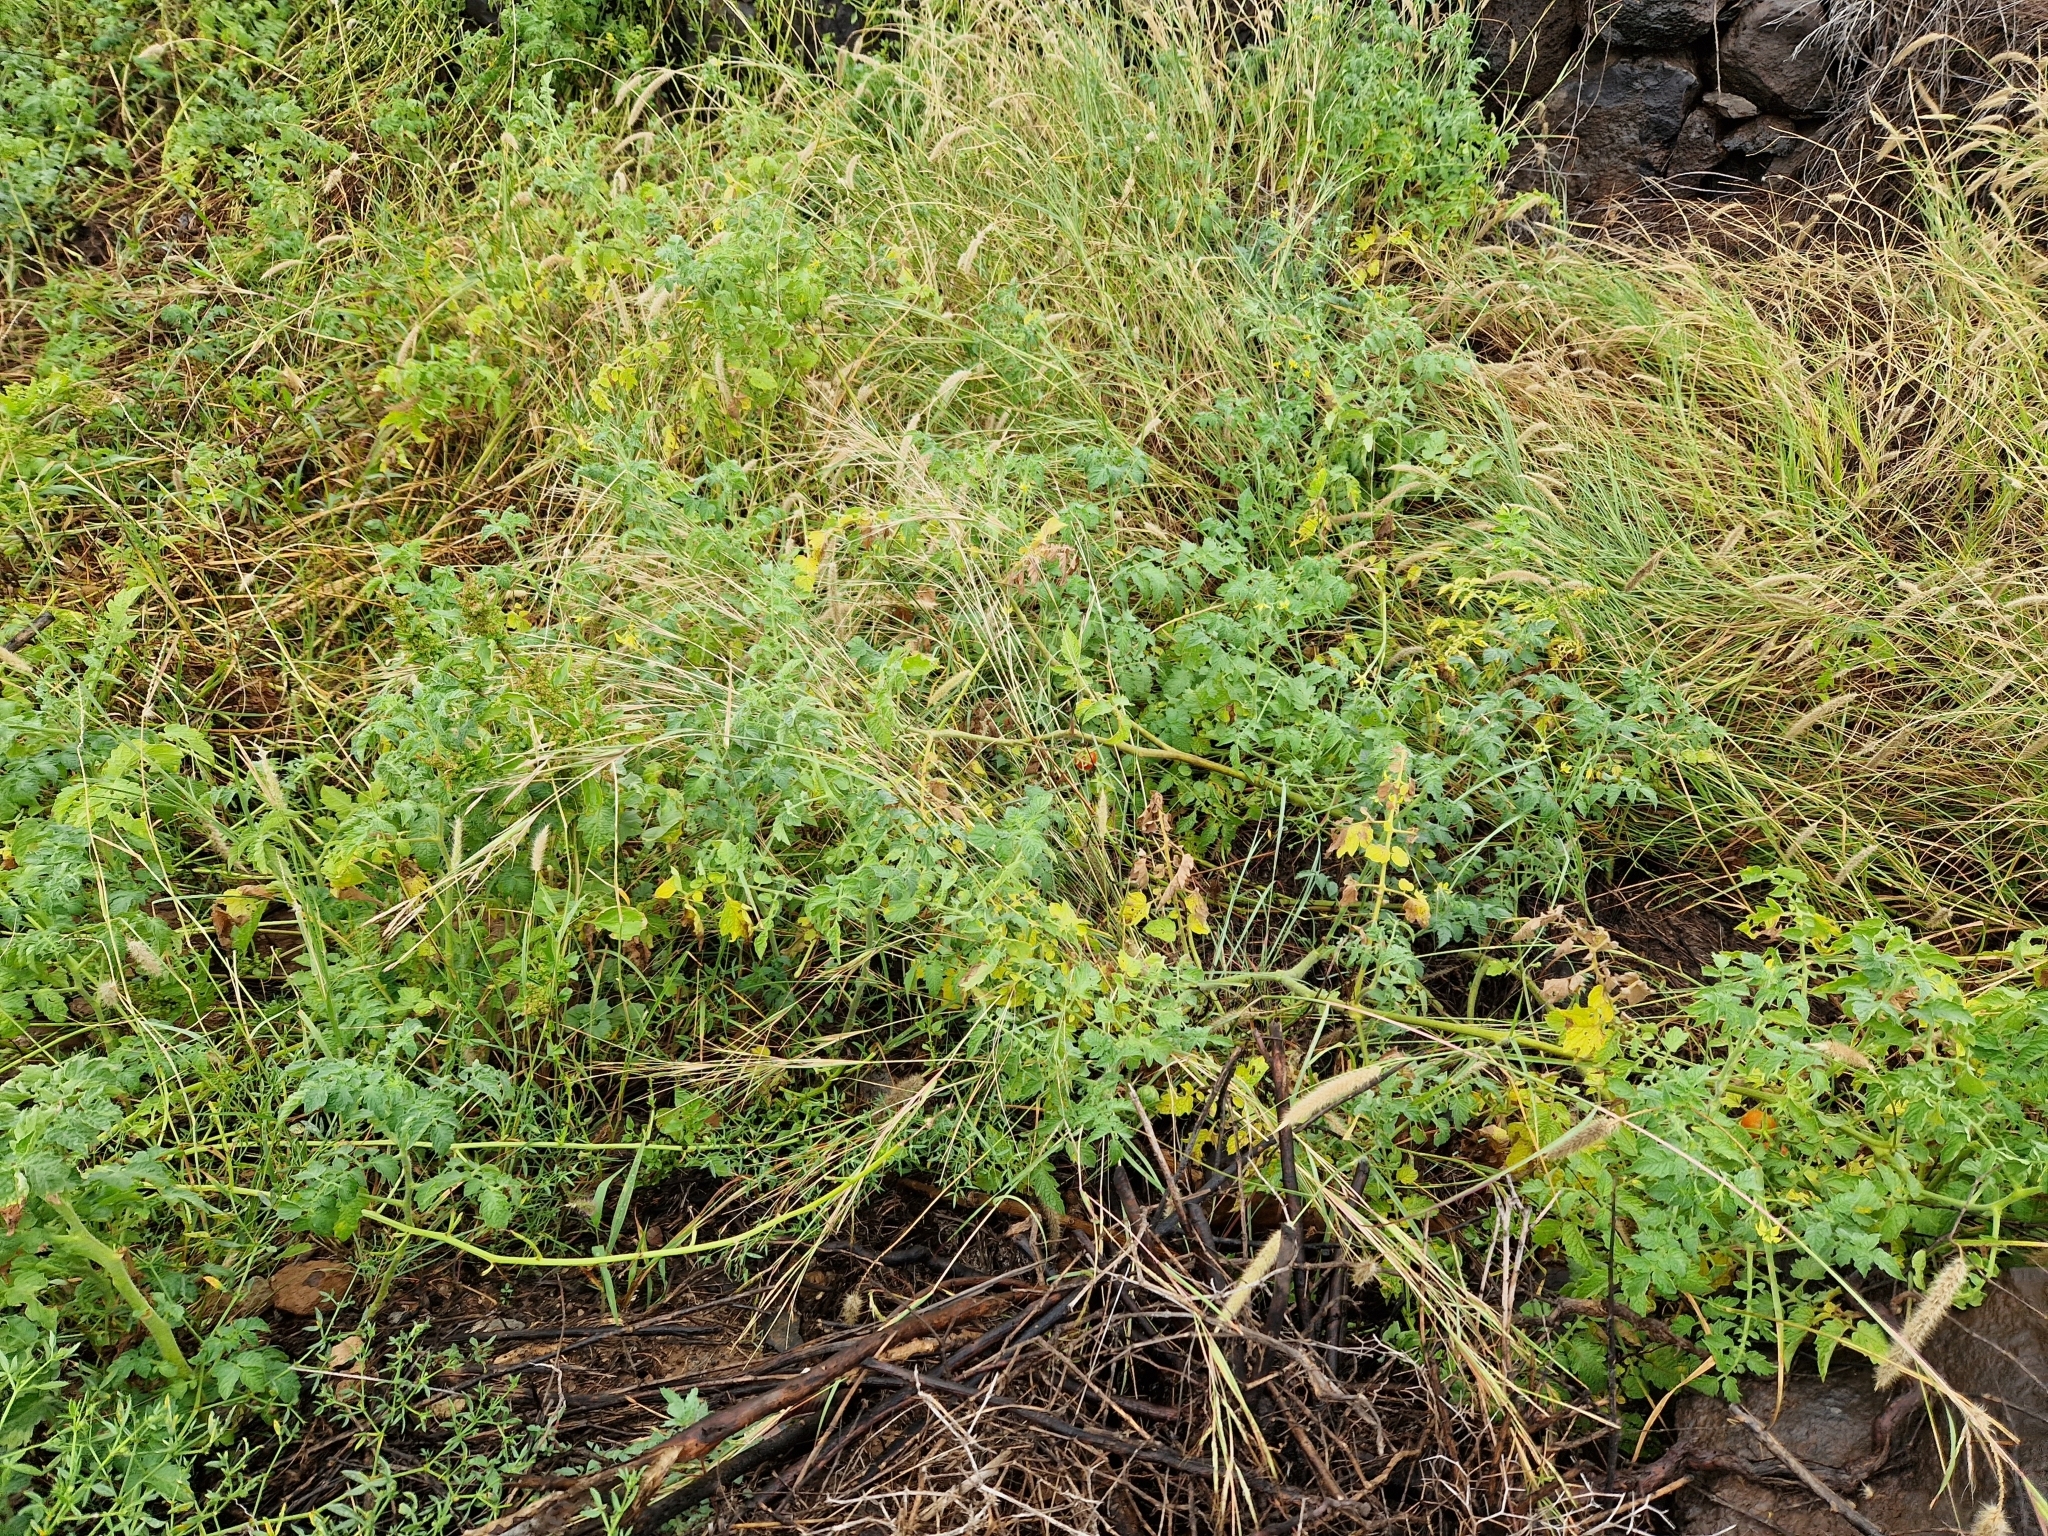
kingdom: Plantae
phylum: Tracheophyta
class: Magnoliopsida
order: Solanales
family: Solanaceae
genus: Solanum
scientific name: Solanum lycopersicum
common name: Garden tomato
